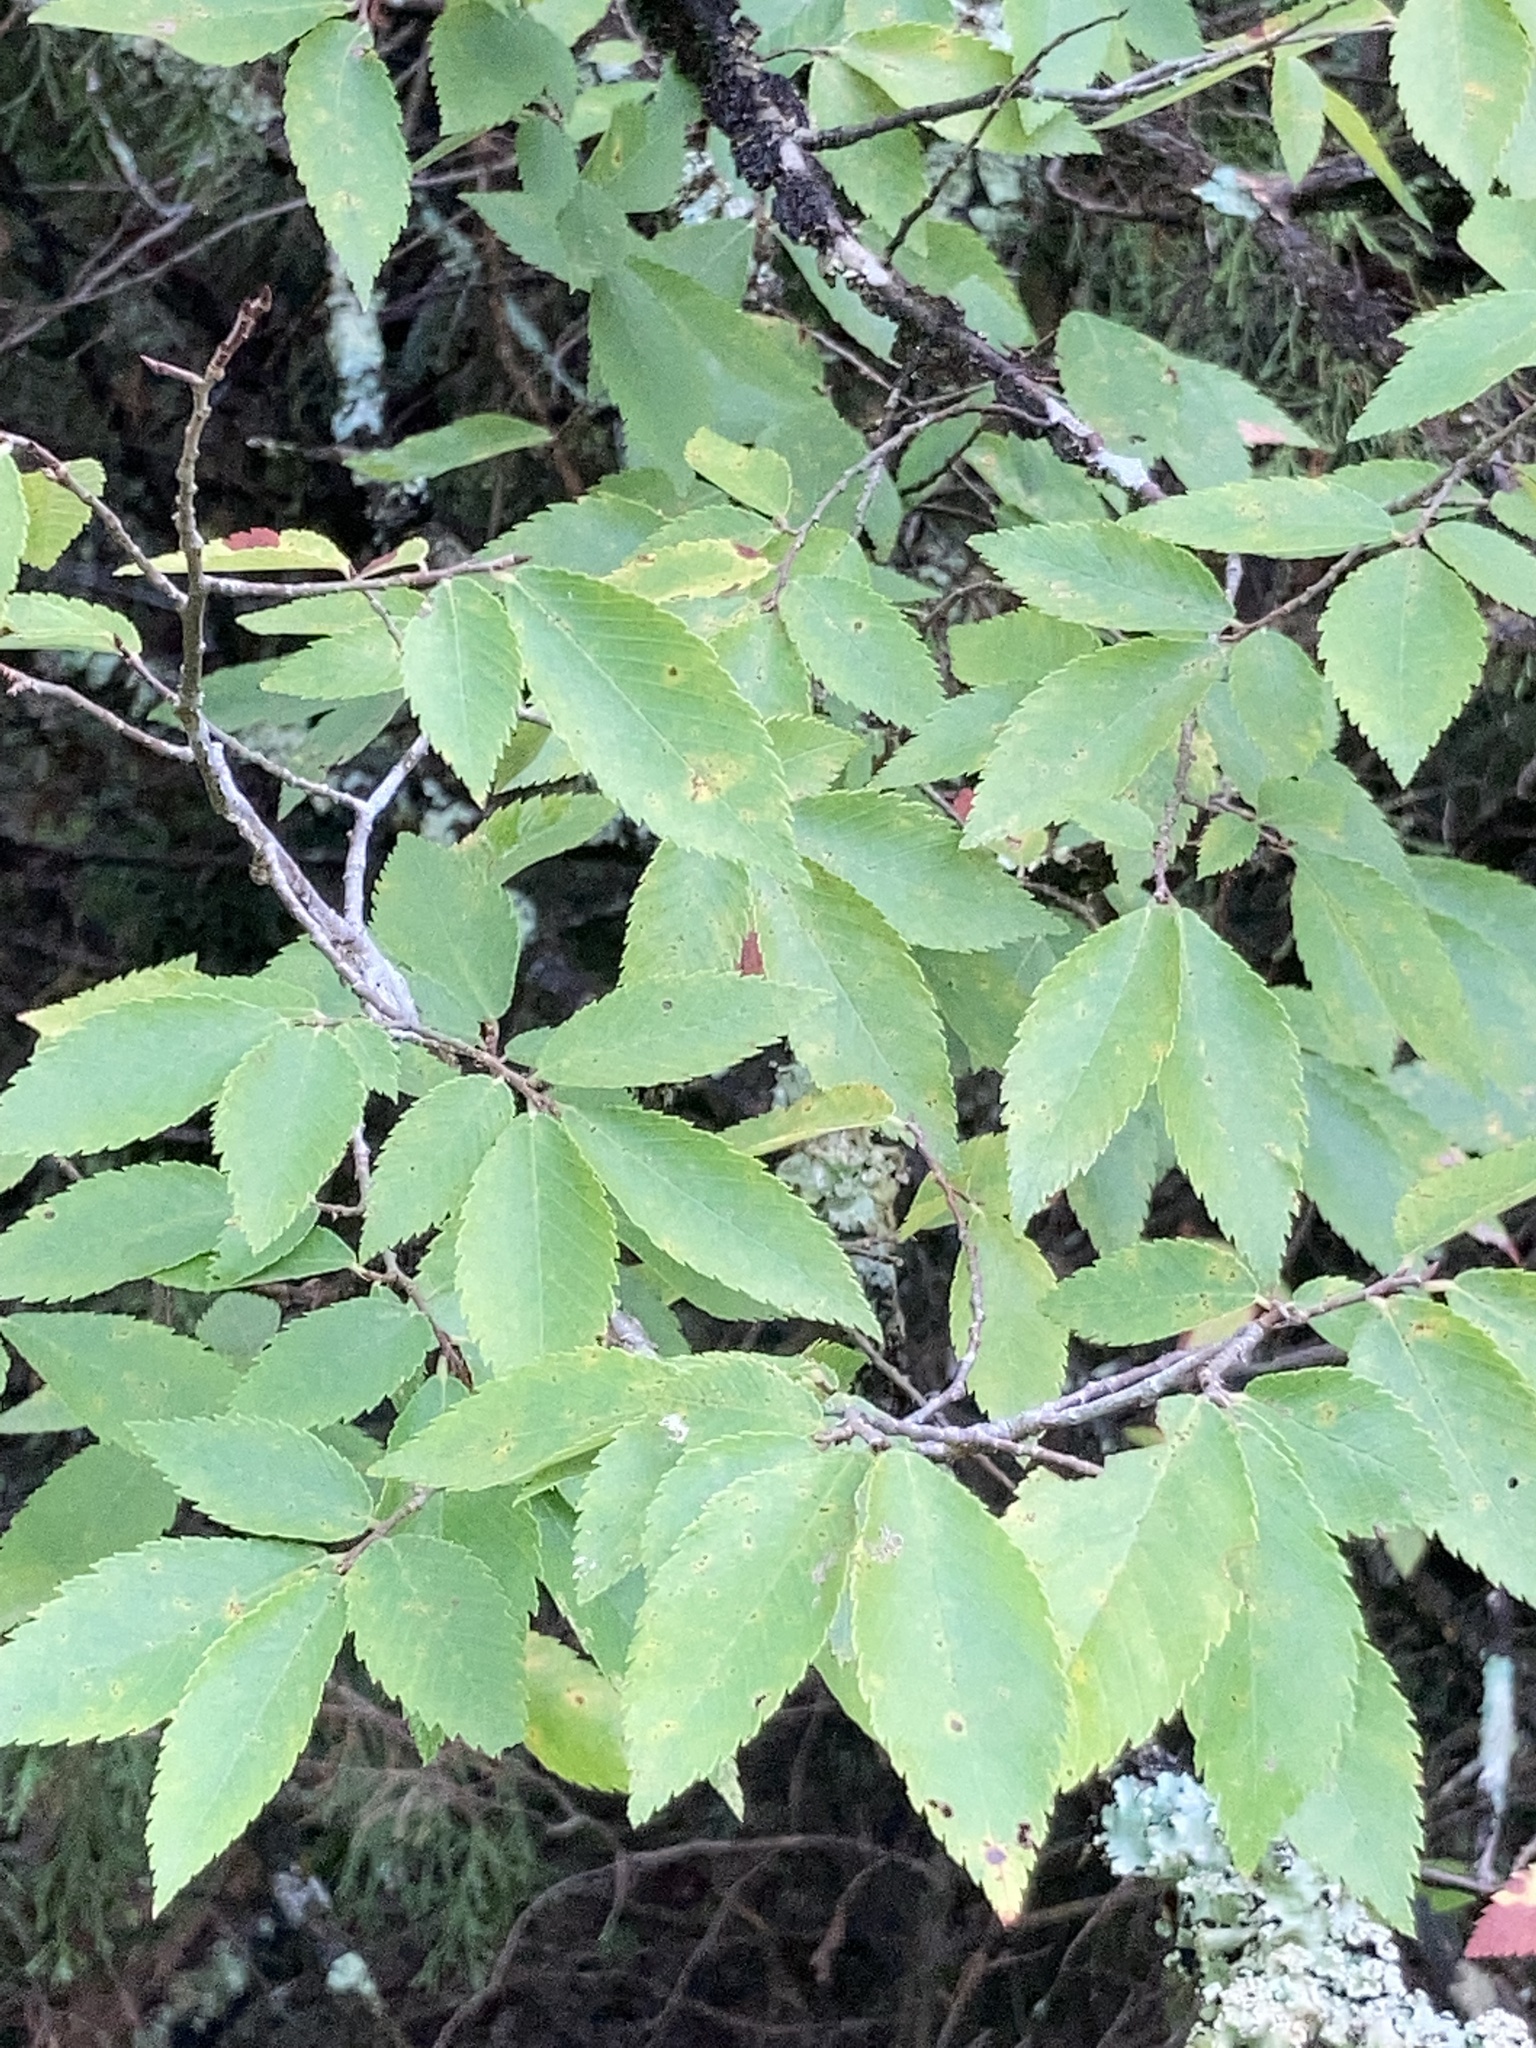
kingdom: Plantae
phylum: Tracheophyta
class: Magnoliopsida
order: Rosales
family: Ulmaceae
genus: Ulmus
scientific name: Ulmus alata
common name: Winged elm
